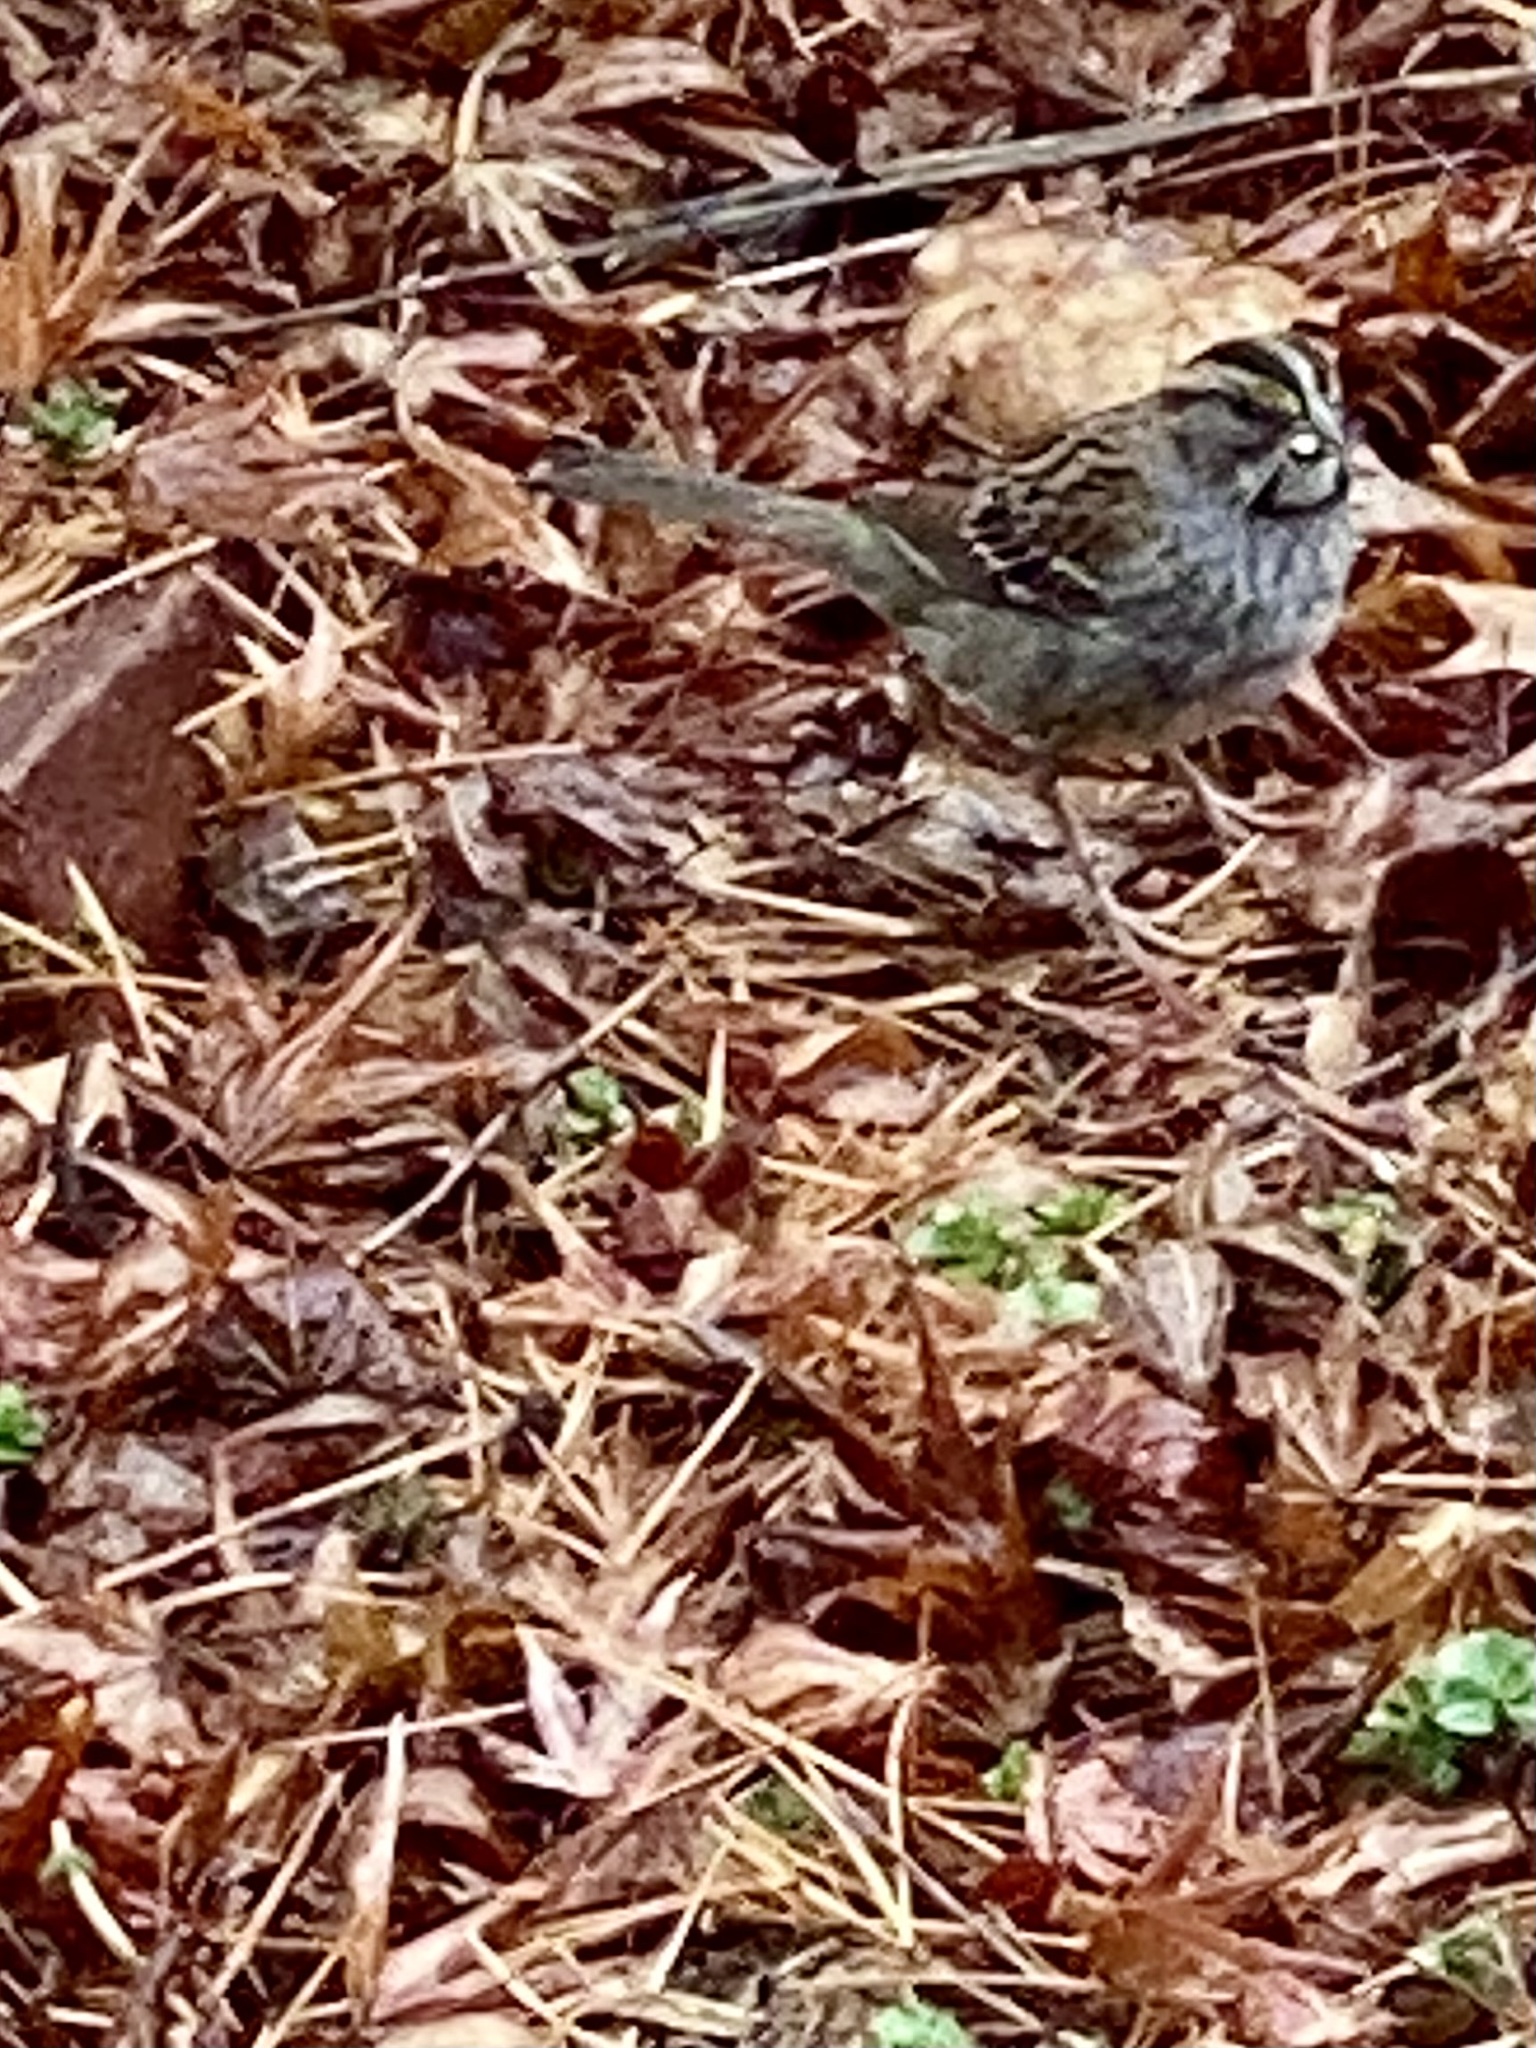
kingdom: Animalia
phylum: Chordata
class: Aves
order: Passeriformes
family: Passerellidae
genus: Zonotrichia
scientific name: Zonotrichia albicollis
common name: White-throated sparrow
